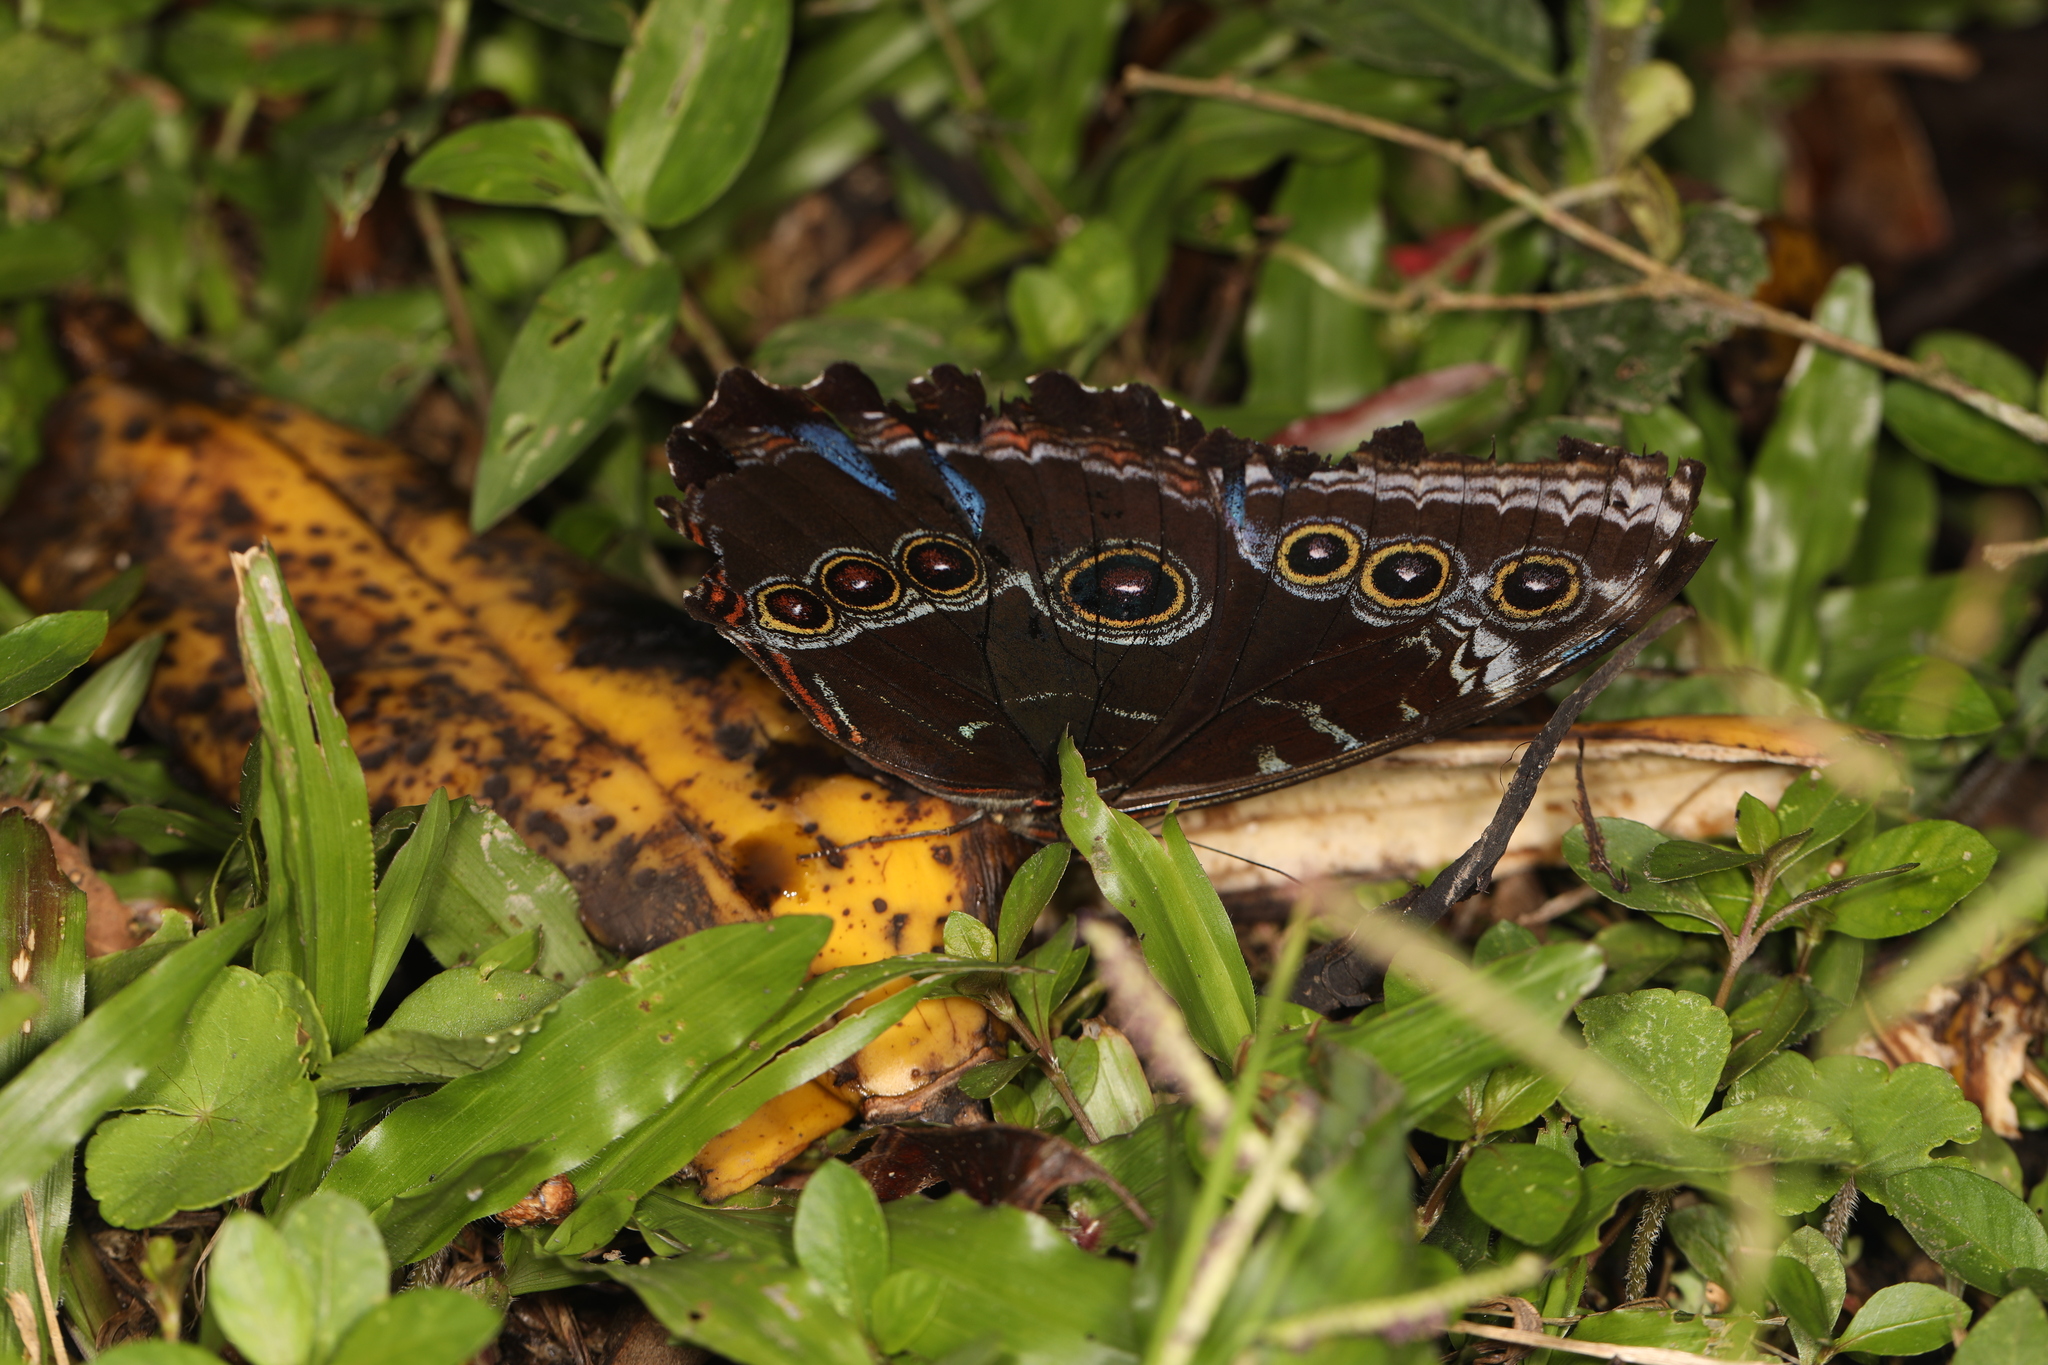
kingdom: Animalia
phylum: Arthropoda
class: Insecta
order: Lepidoptera
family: Nymphalidae
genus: Morpho
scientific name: Morpho helenor
